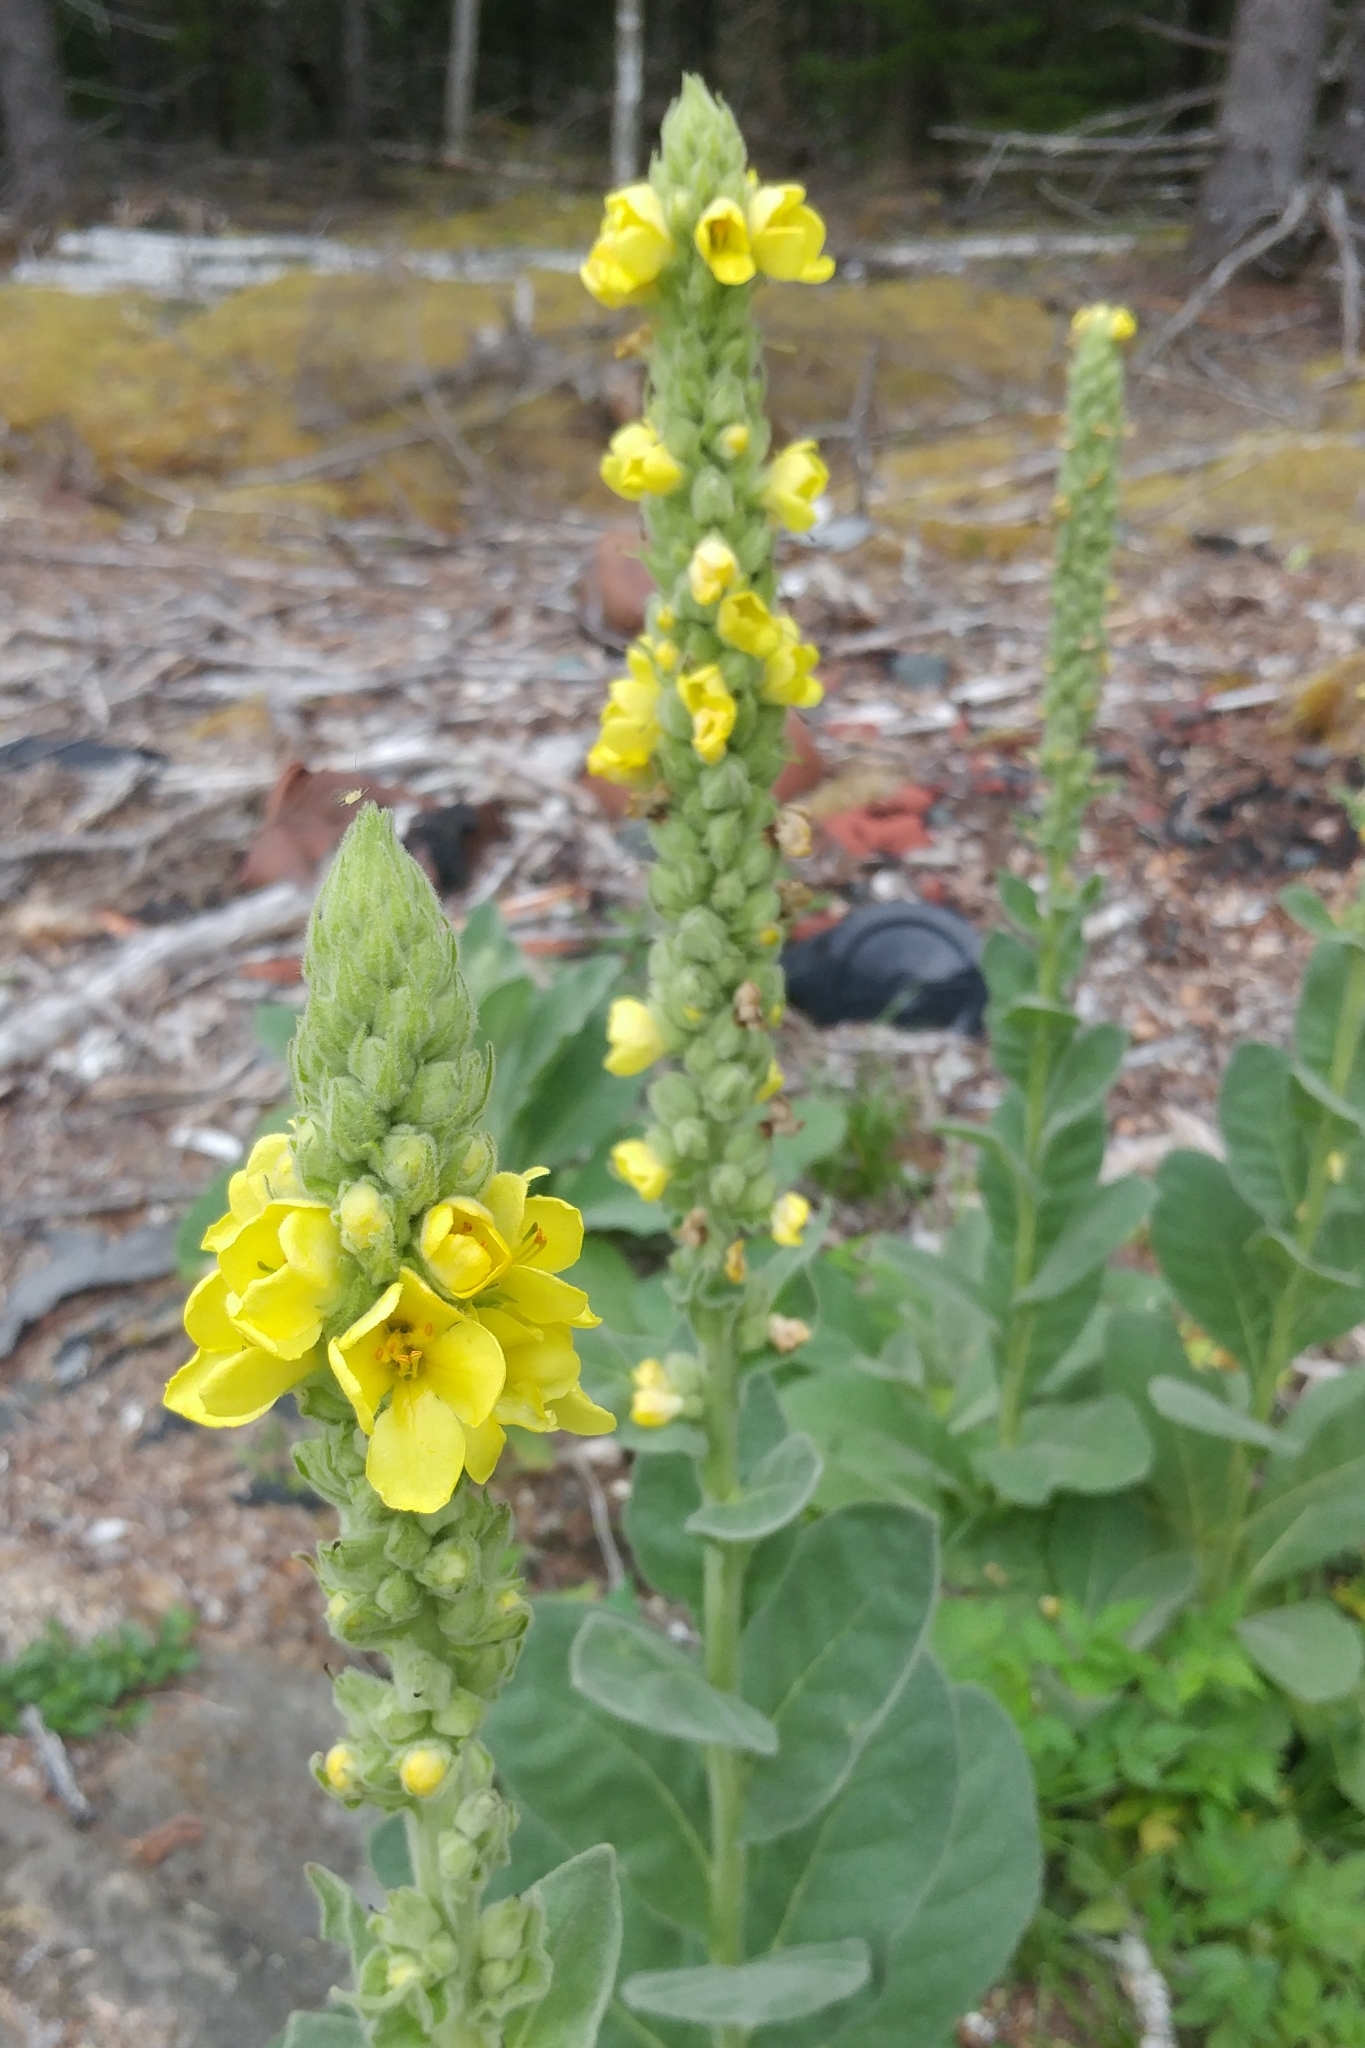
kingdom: Plantae
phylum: Tracheophyta
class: Magnoliopsida
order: Lamiales
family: Scrophulariaceae
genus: Verbascum
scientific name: Verbascum thapsus
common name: Common mullein
